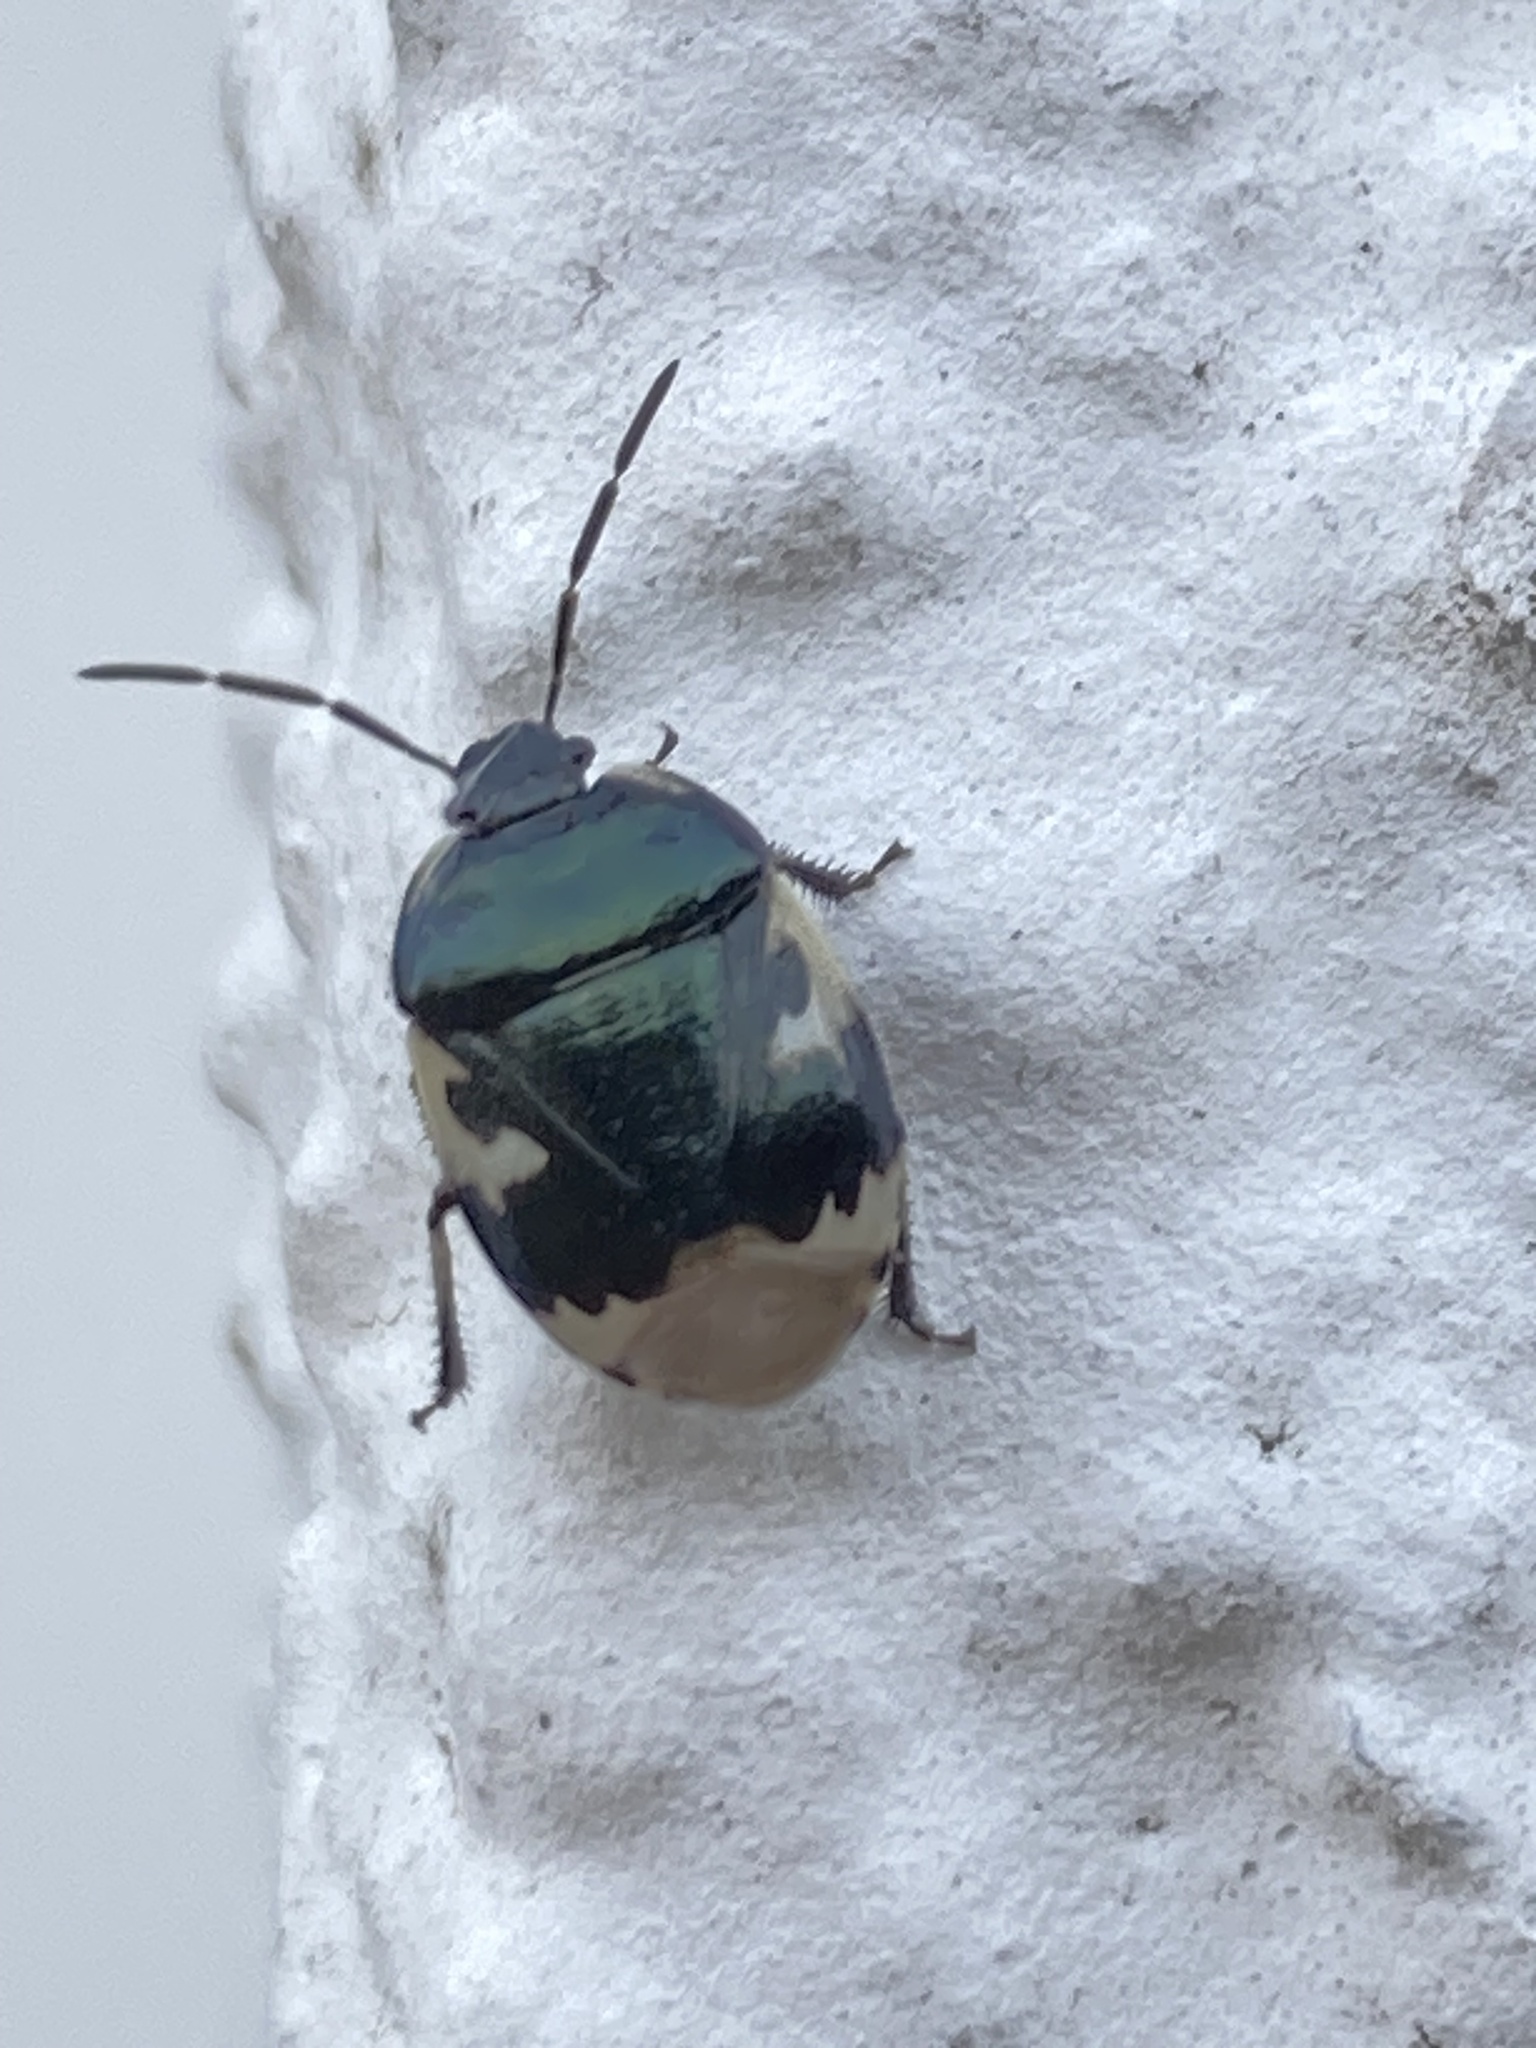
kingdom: Animalia
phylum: Arthropoda
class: Insecta
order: Hemiptera
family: Cydnidae
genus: Tritomegas
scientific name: Tritomegas bicolor
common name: Pied shieldbug
